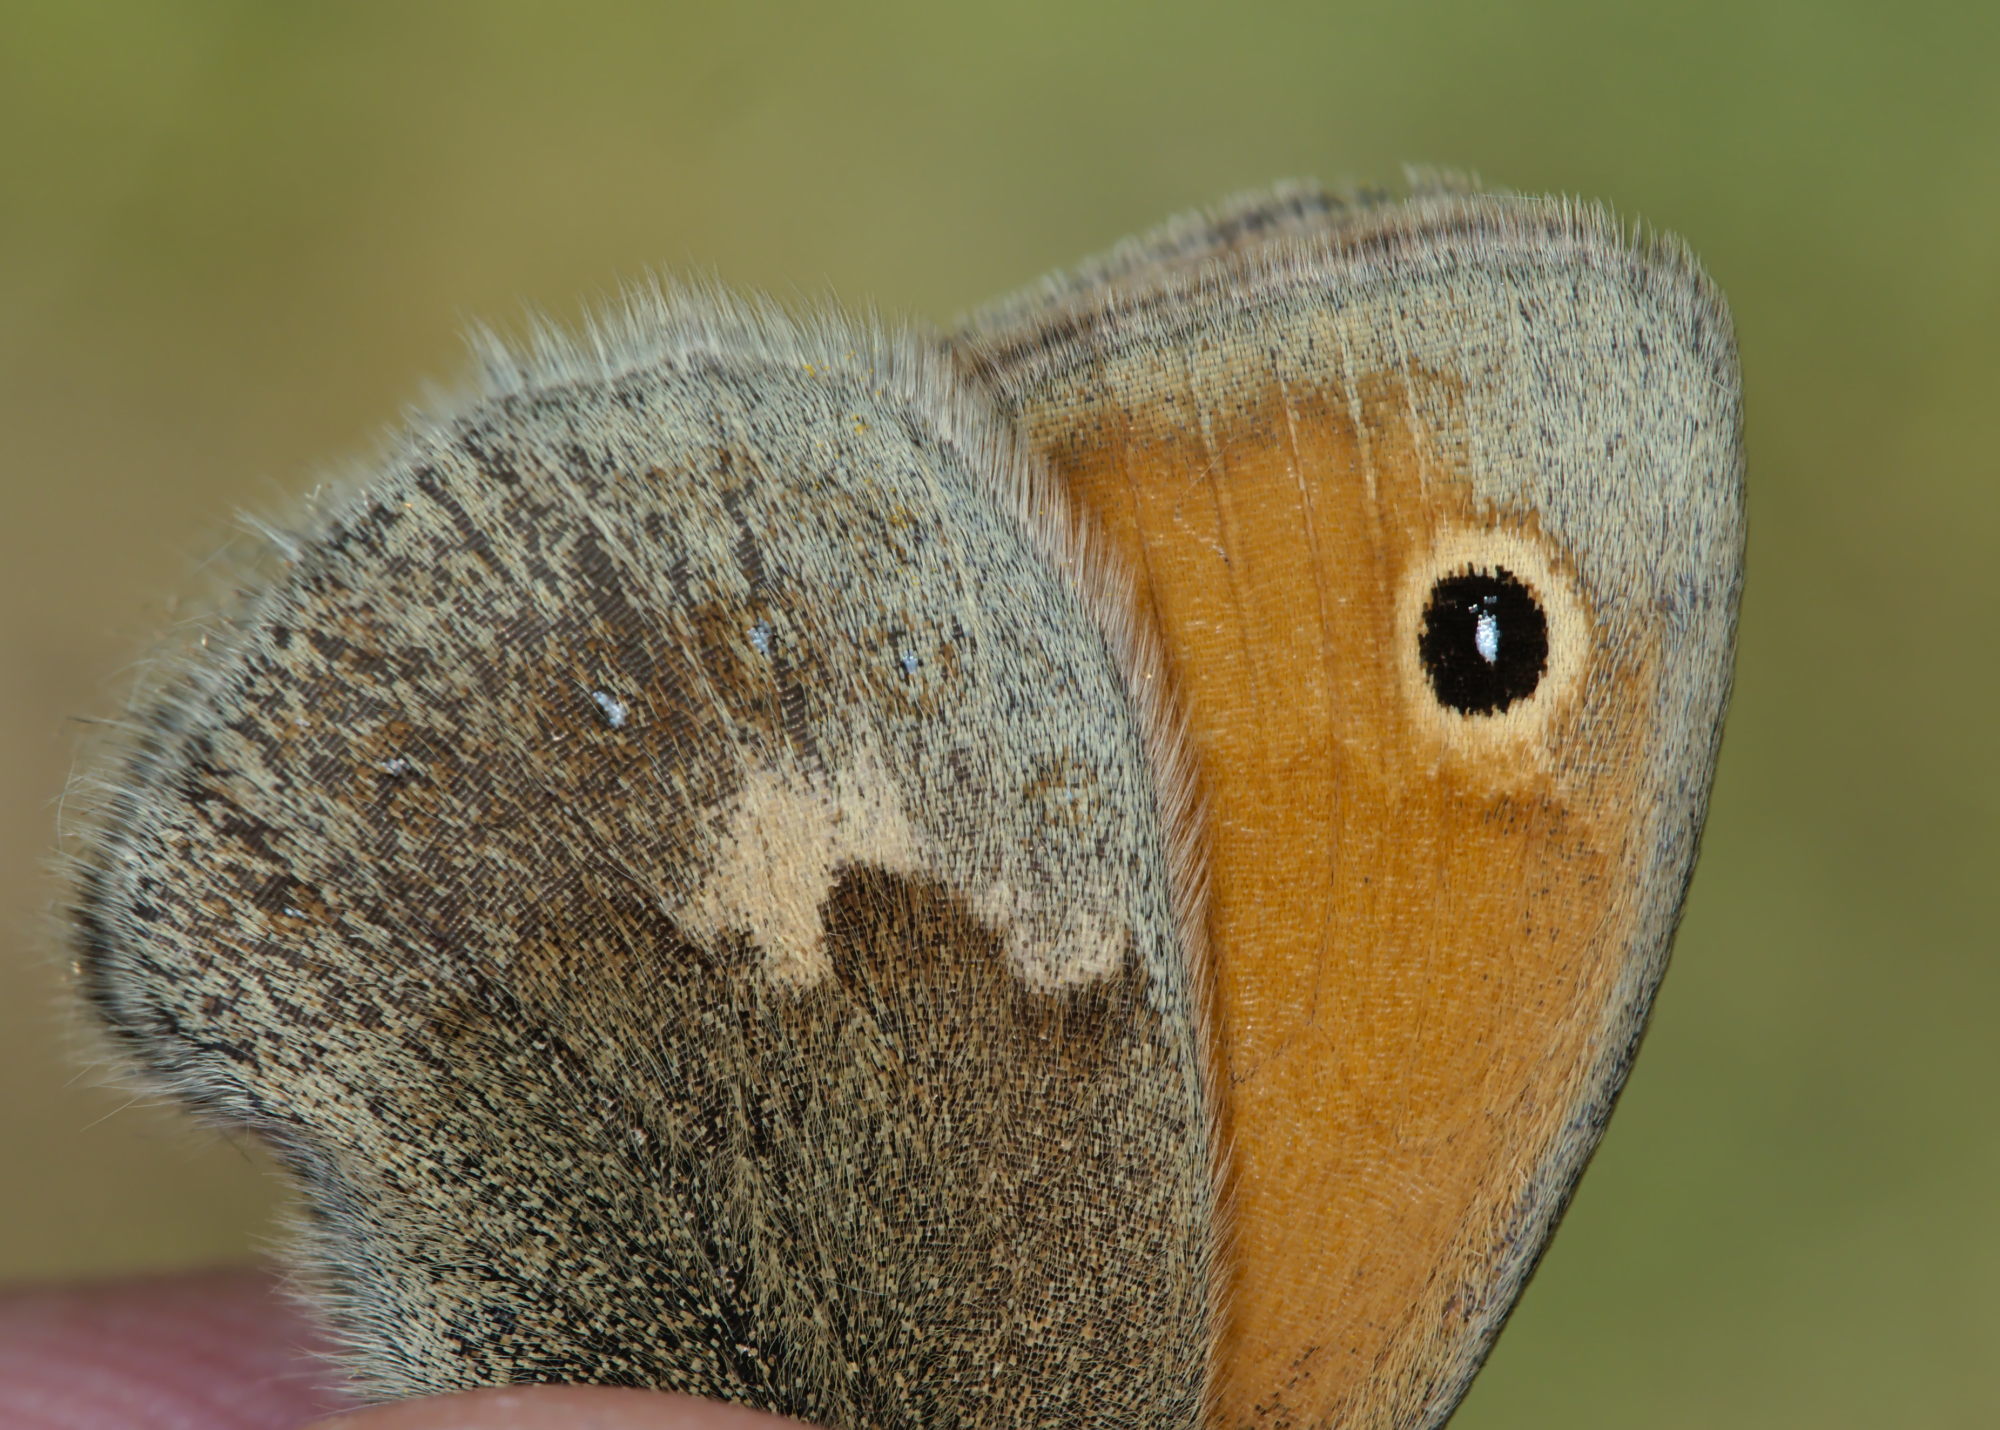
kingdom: Animalia
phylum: Arthropoda
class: Insecta
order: Lepidoptera
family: Nymphalidae
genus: Coenonympha
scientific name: Coenonympha pamphilus
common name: Small heath
